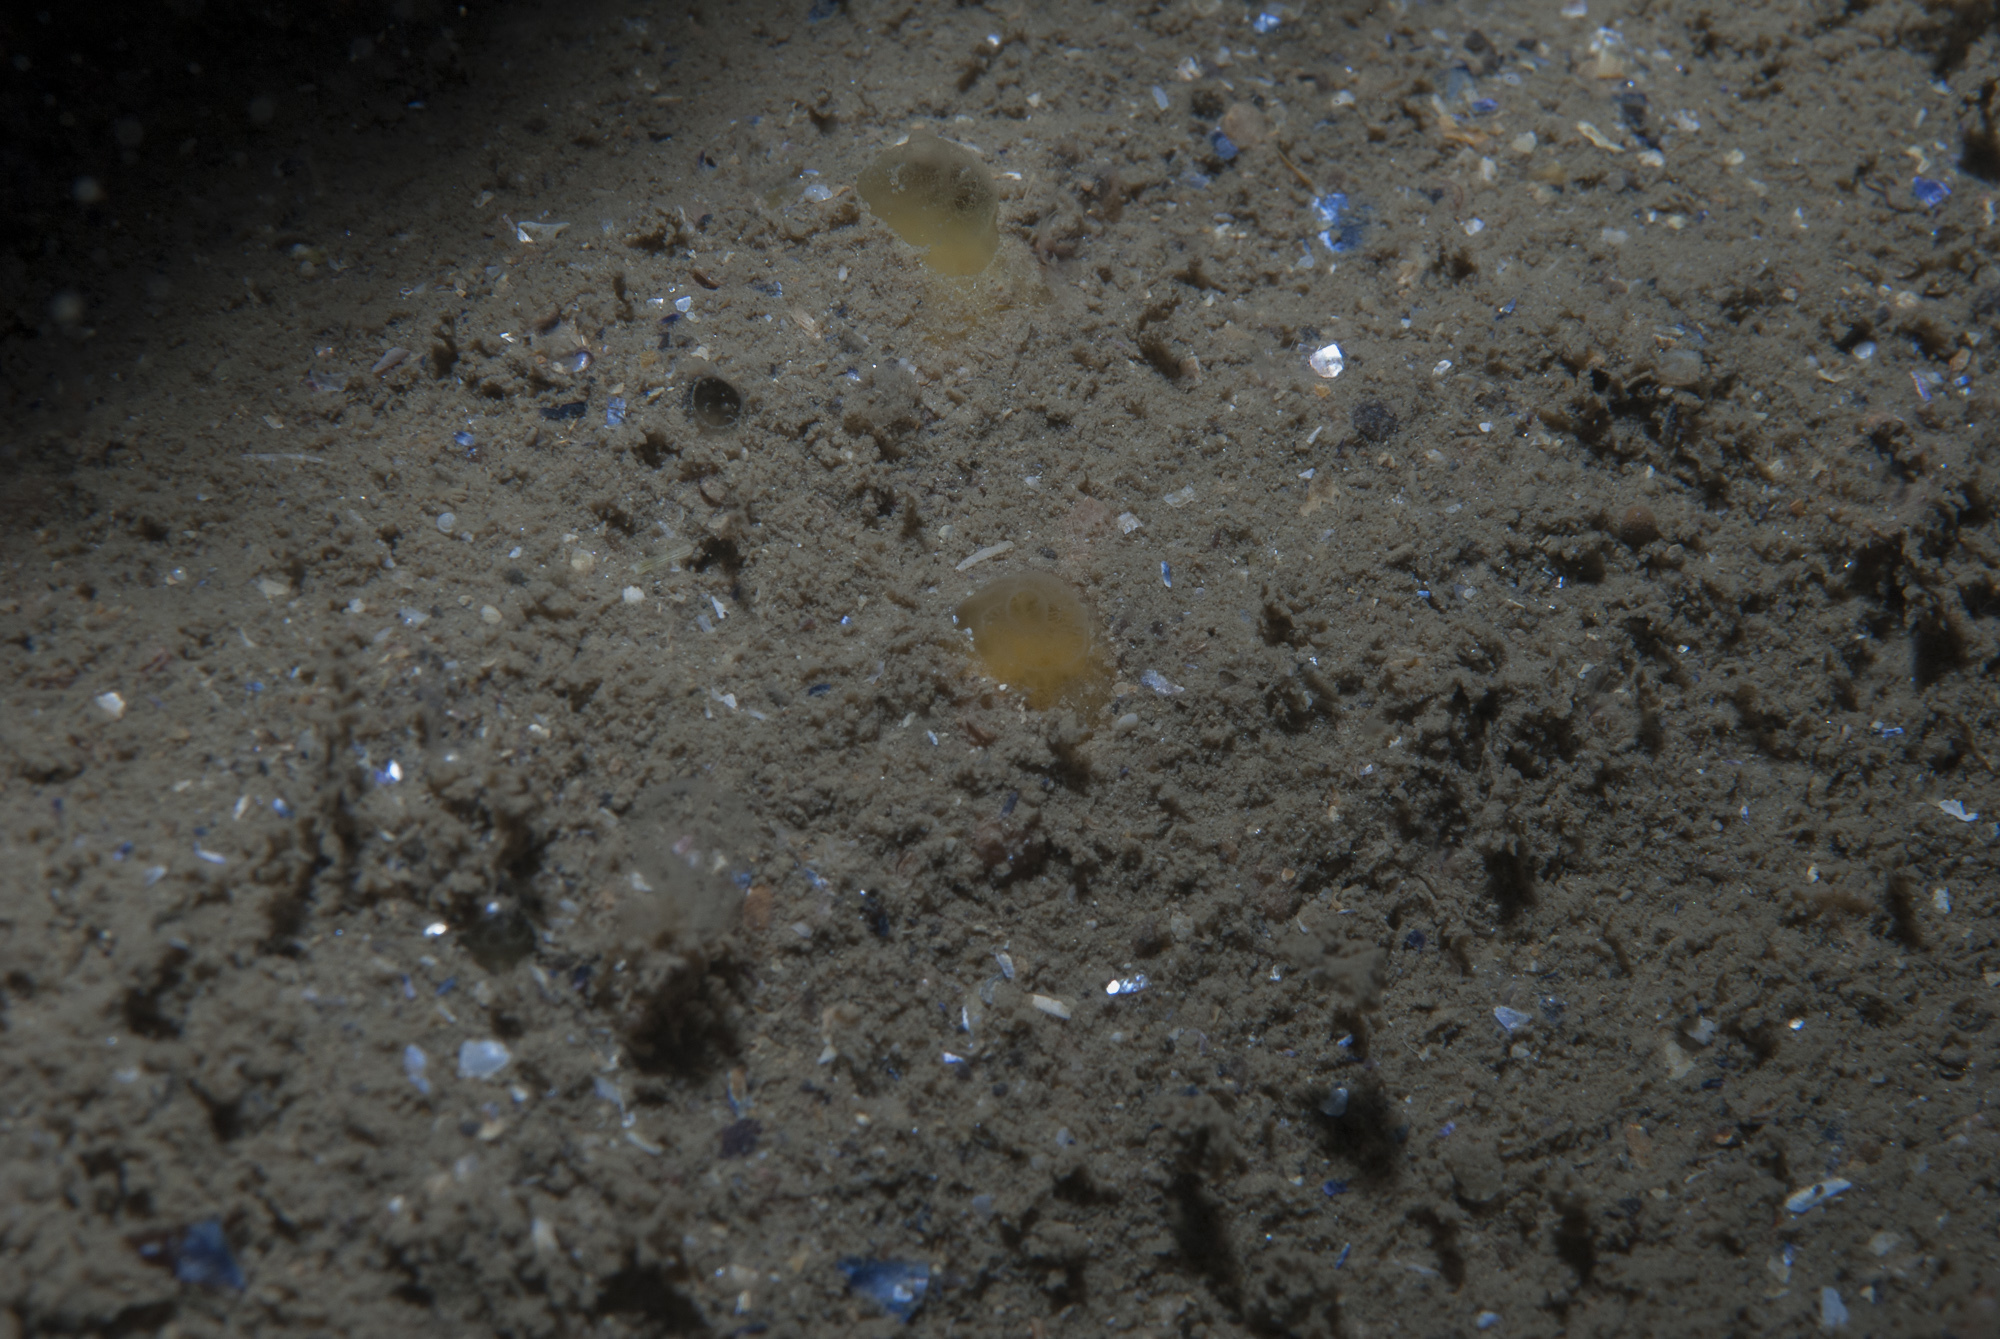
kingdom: Animalia
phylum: Porifera
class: Demospongiae
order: Poecilosclerida
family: Hymedesmiidae
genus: Hymedesmia
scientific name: Hymedesmia rathlinia
